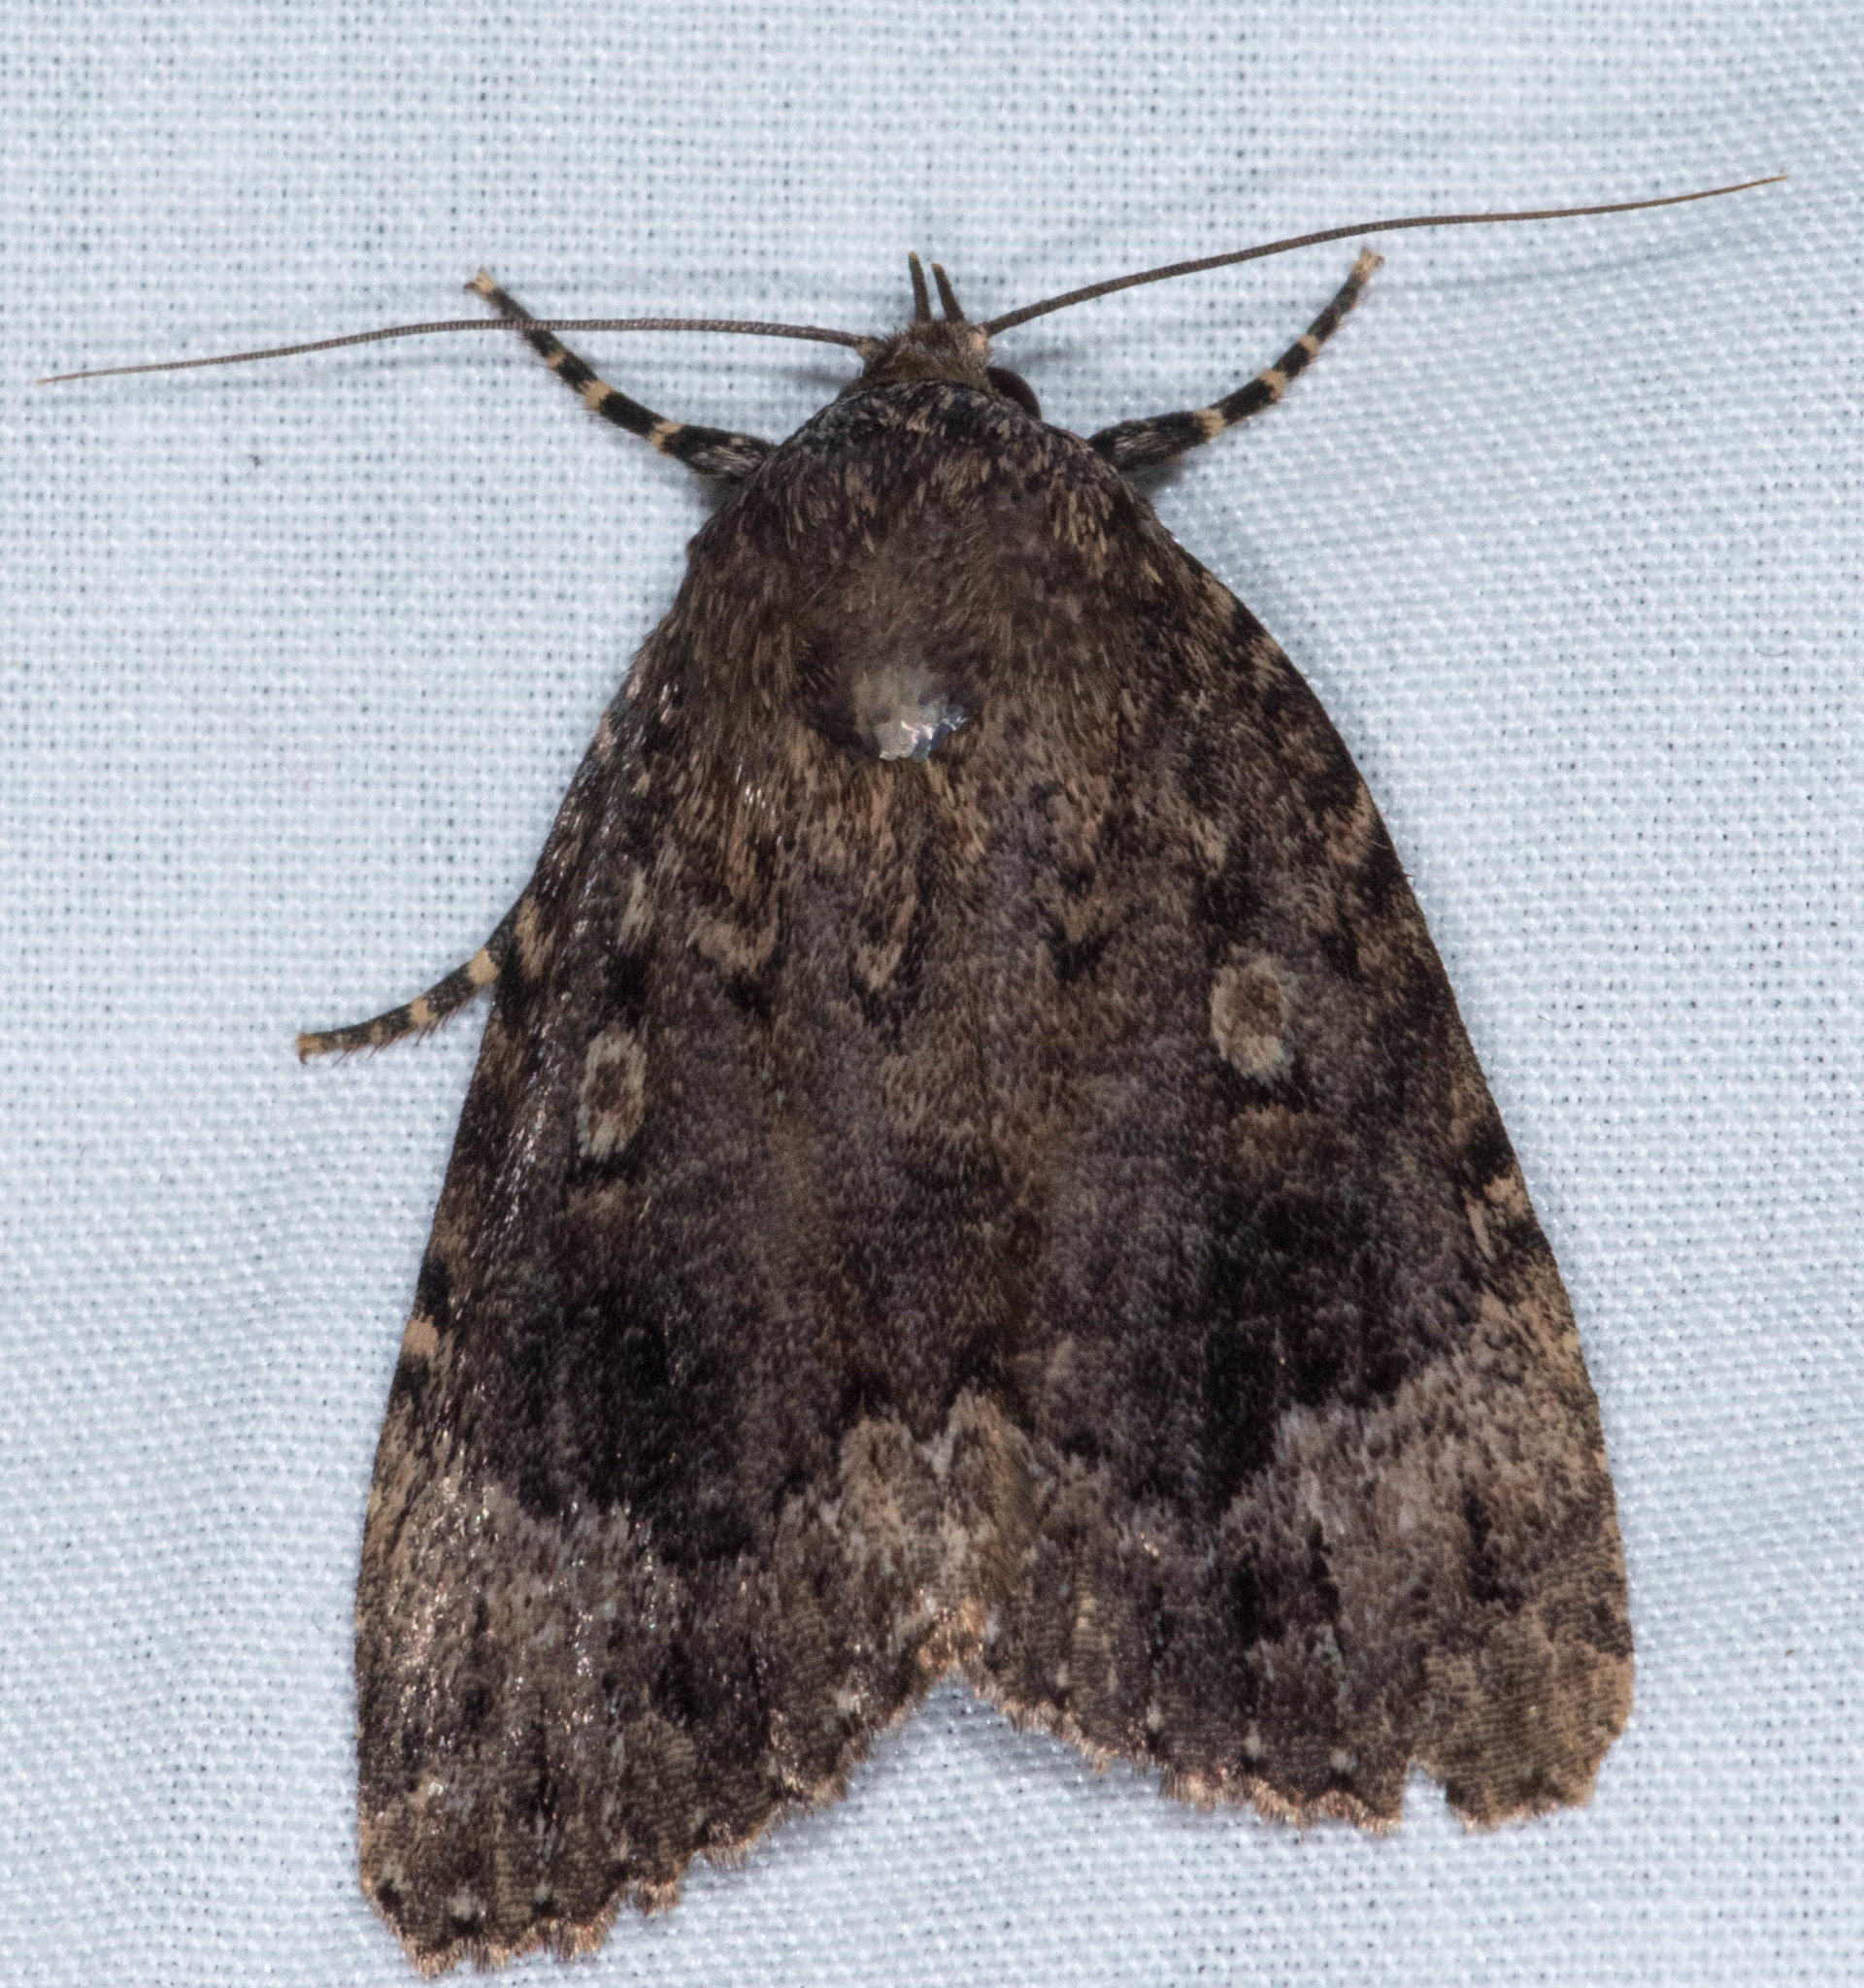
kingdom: Animalia
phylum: Arthropoda
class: Insecta
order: Lepidoptera
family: Noctuidae
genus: Amphipyra
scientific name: Amphipyra pyramidoides
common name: American copper underwing
